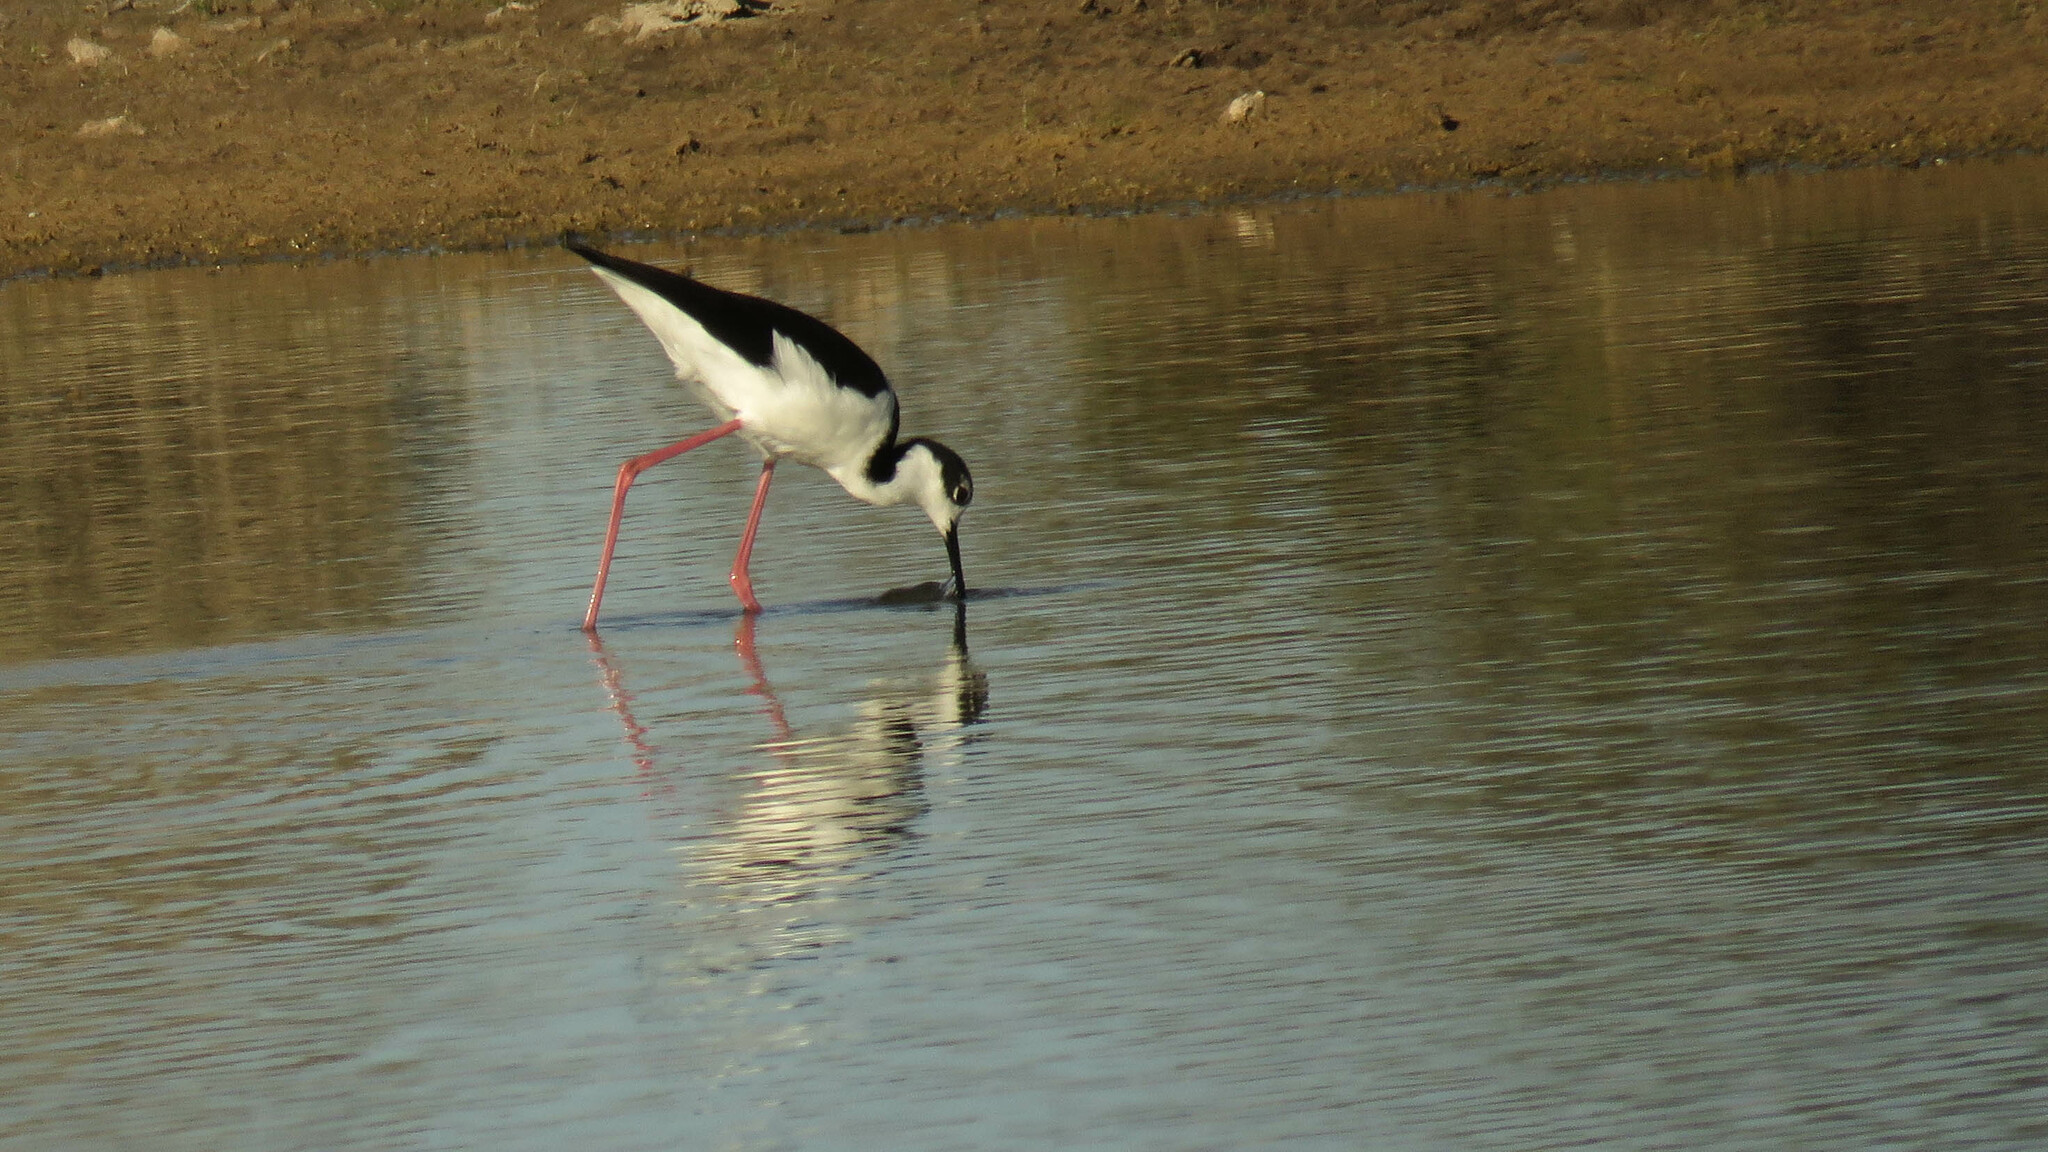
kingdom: Animalia
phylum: Chordata
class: Aves
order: Charadriiformes
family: Recurvirostridae
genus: Himantopus
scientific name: Himantopus mexicanus
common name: Black-necked stilt
